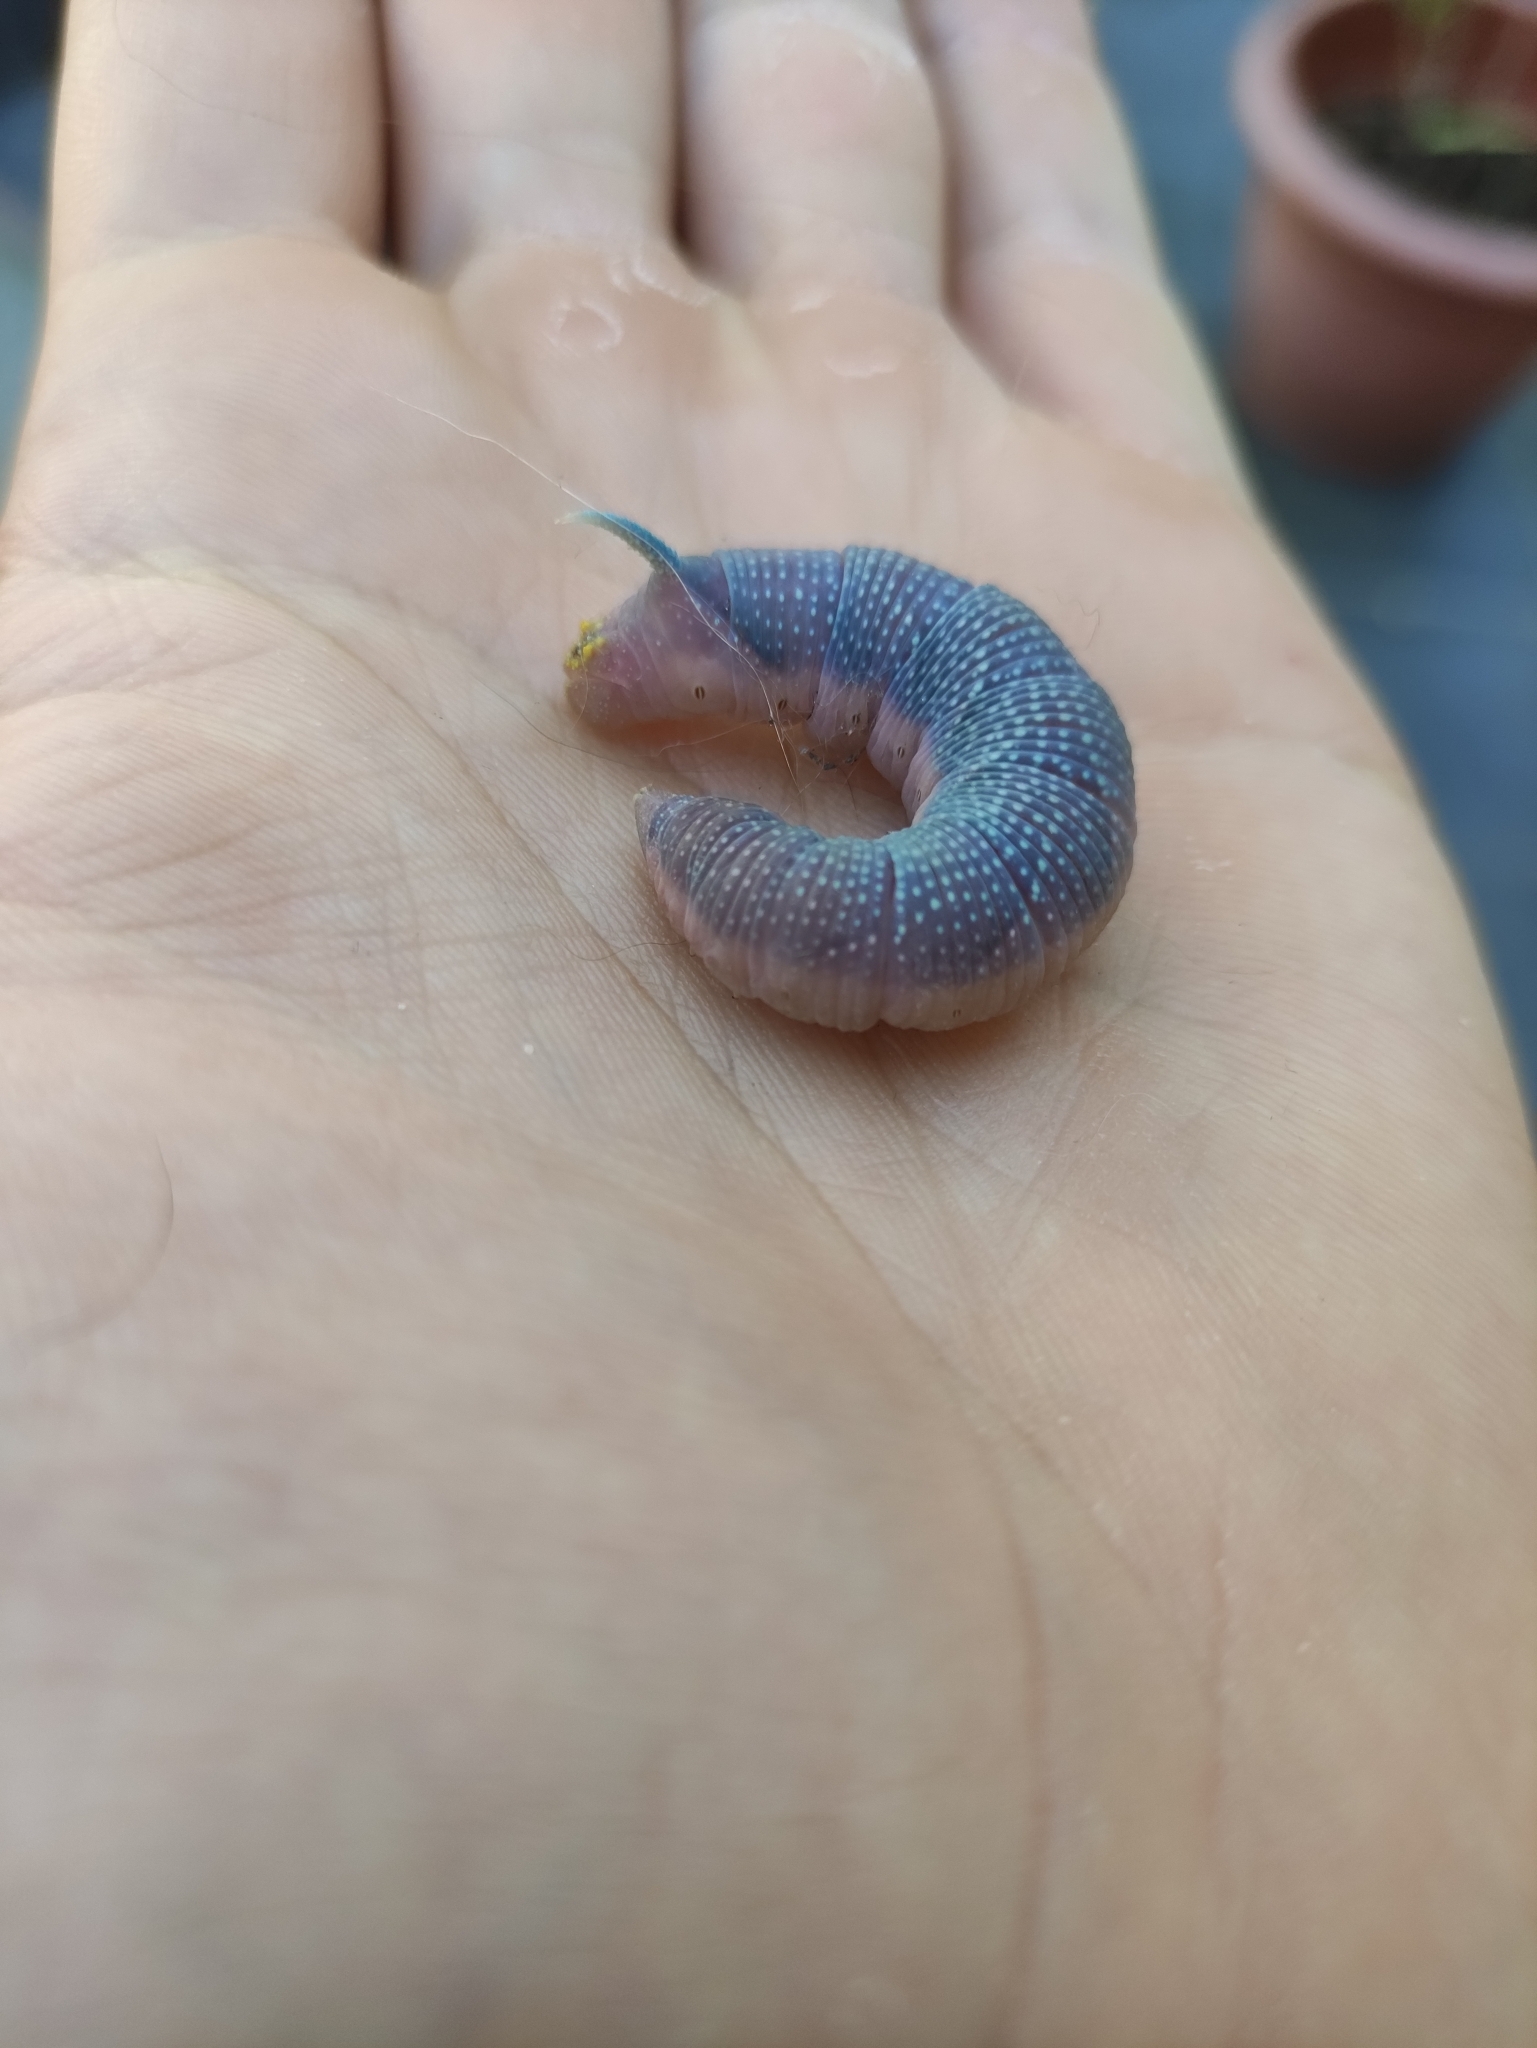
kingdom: Animalia
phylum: Arthropoda
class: Insecta
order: Lepidoptera
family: Sphingidae
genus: Mimas
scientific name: Mimas tiliae
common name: Lime hawk-moth
